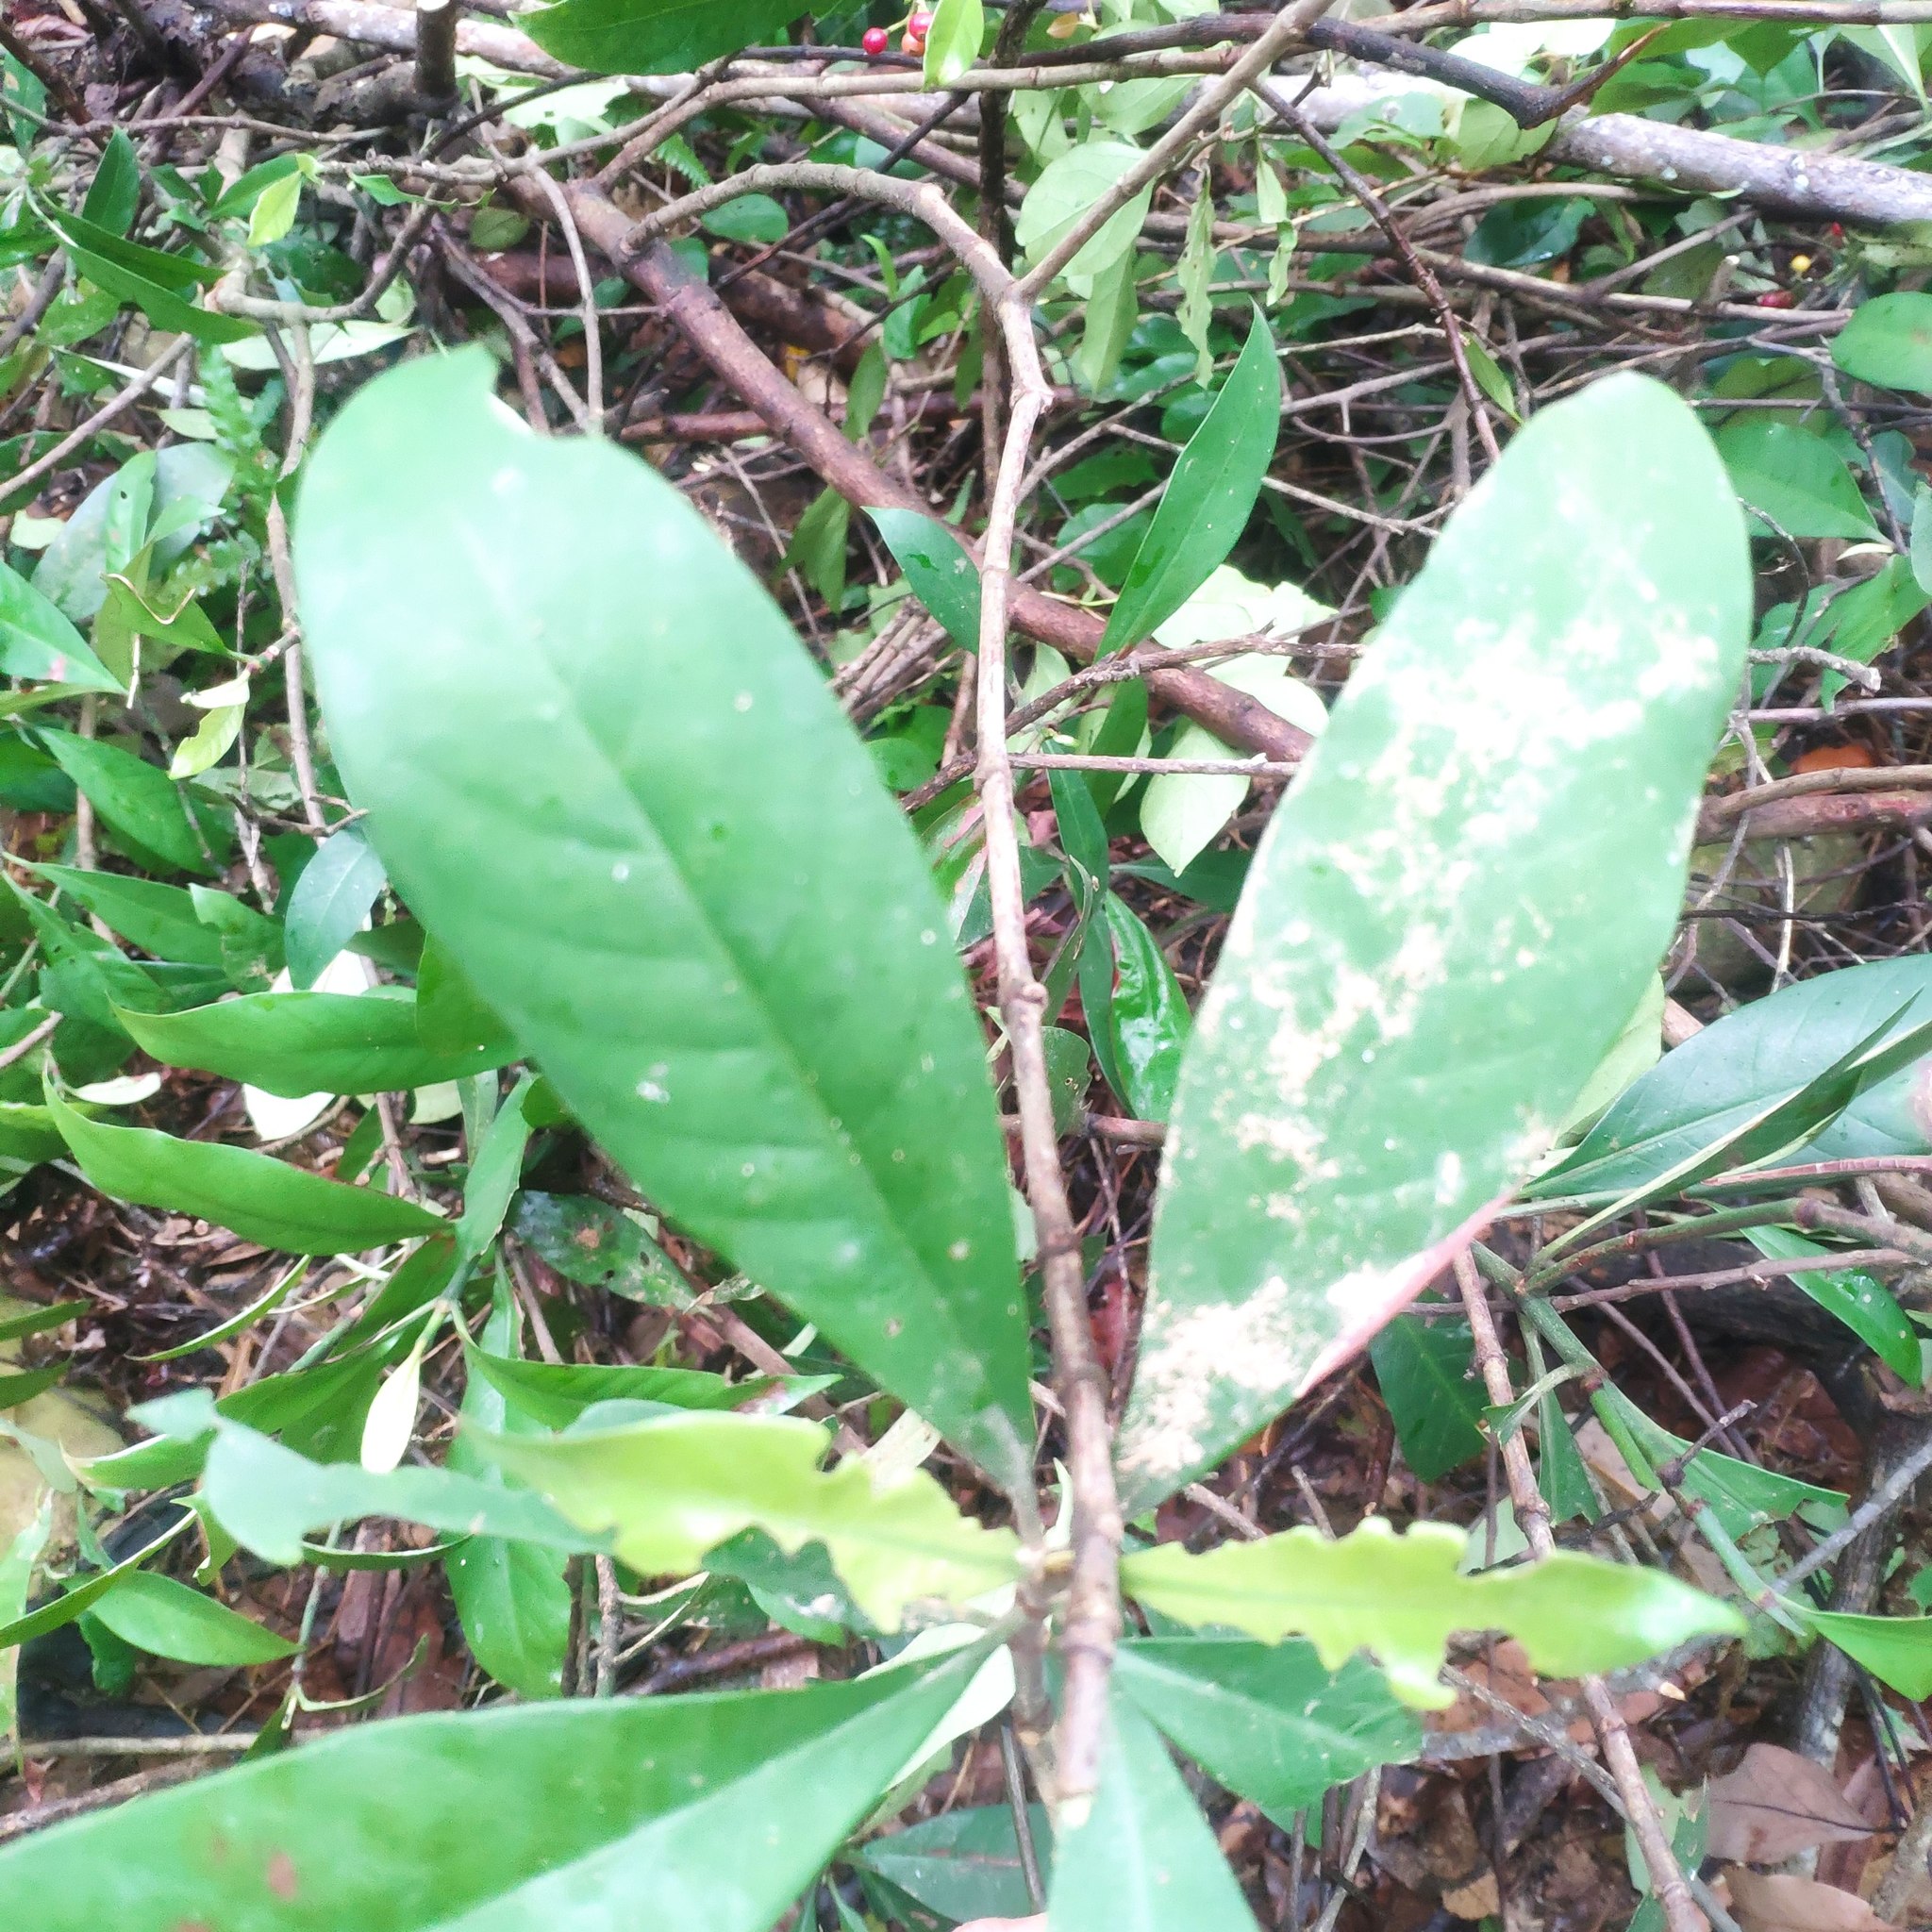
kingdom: Plantae
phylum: Tracheophyta
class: Magnoliopsida
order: Gentianales
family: Rubiaceae
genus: Psychotria
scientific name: Psychotria asiatica
